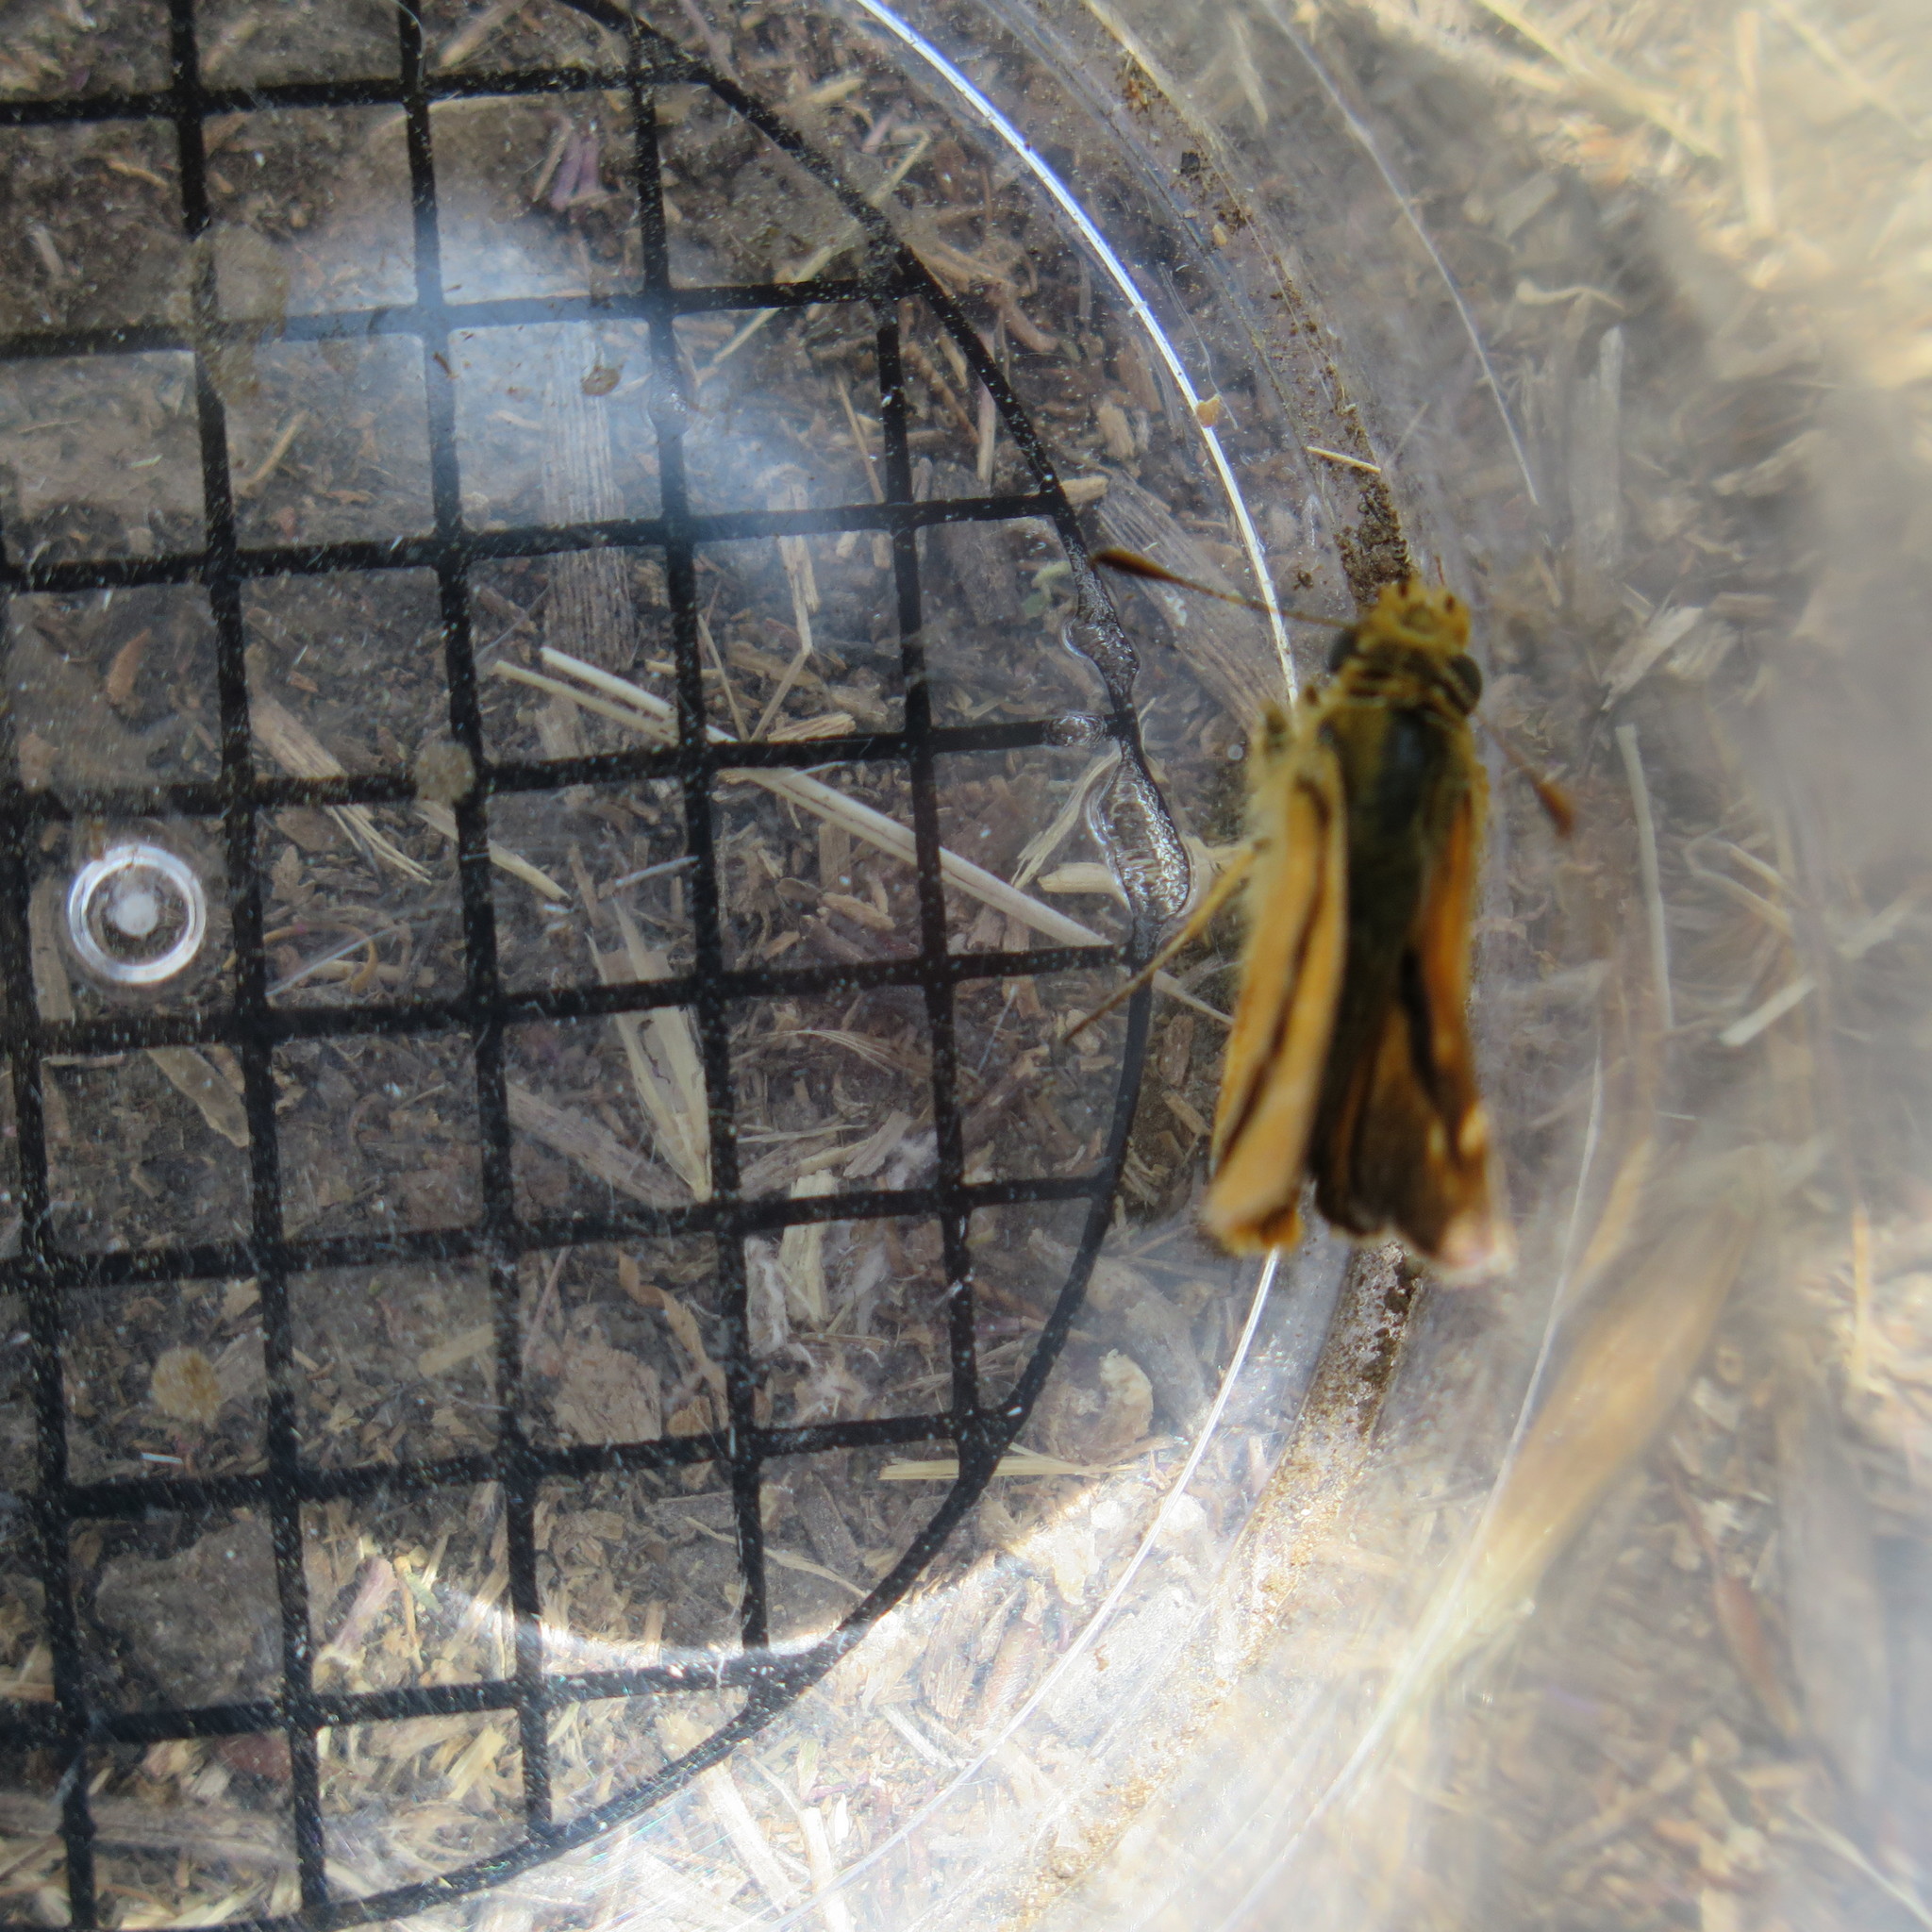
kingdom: Animalia
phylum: Arthropoda
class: Insecta
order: Lepidoptera
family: Hesperiidae
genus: Ochlodes
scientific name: Ochlodes agricola
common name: Rural skipper
